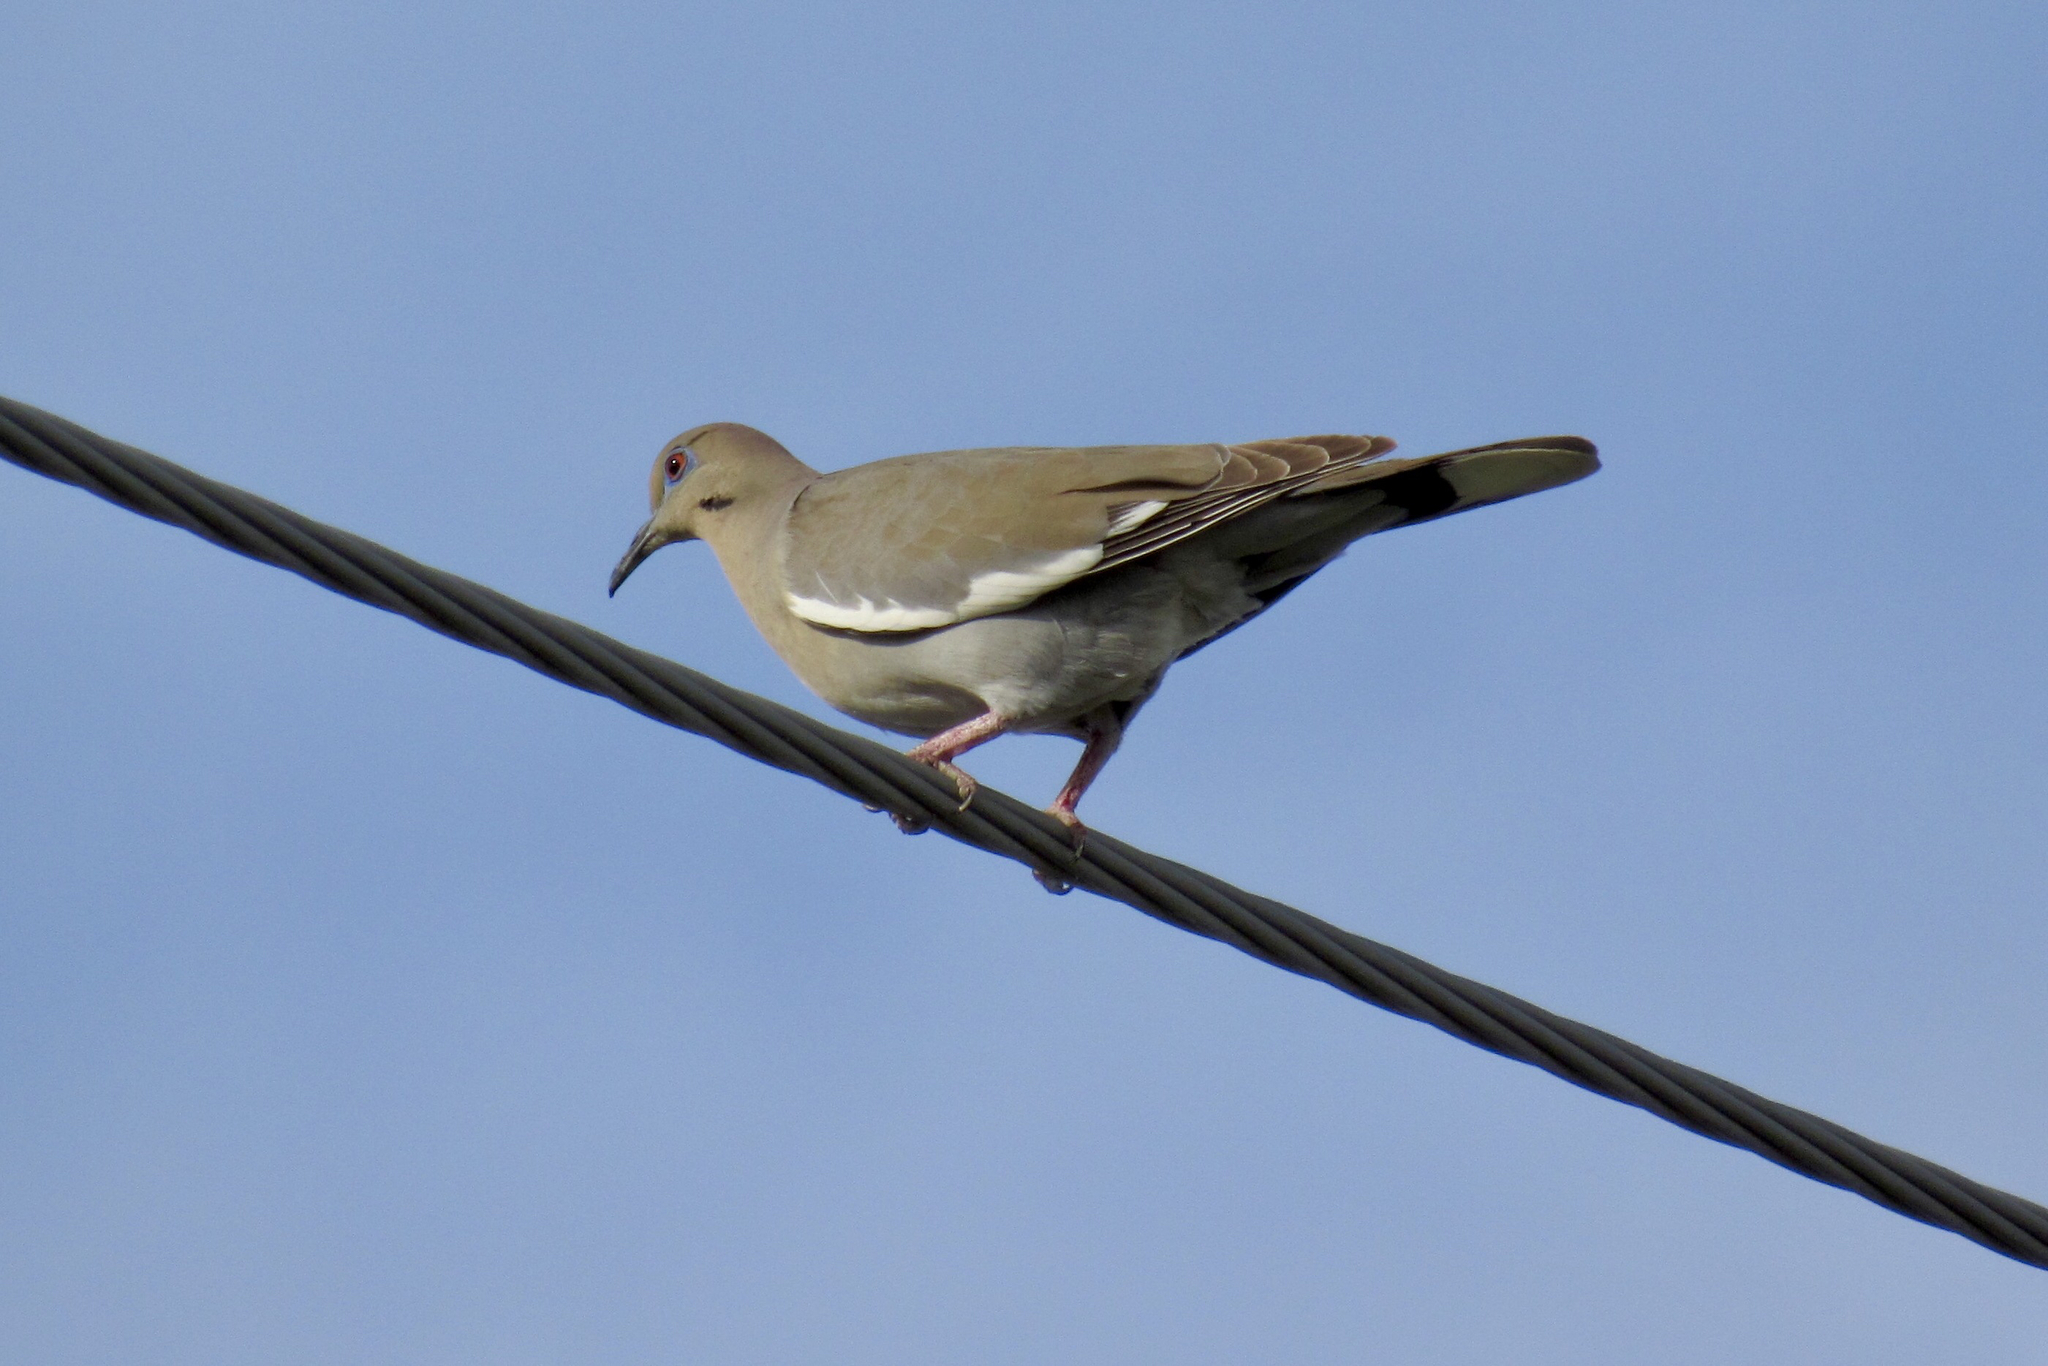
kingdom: Animalia
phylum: Chordata
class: Aves
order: Columbiformes
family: Columbidae
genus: Zenaida
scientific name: Zenaida asiatica
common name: White-winged dove
